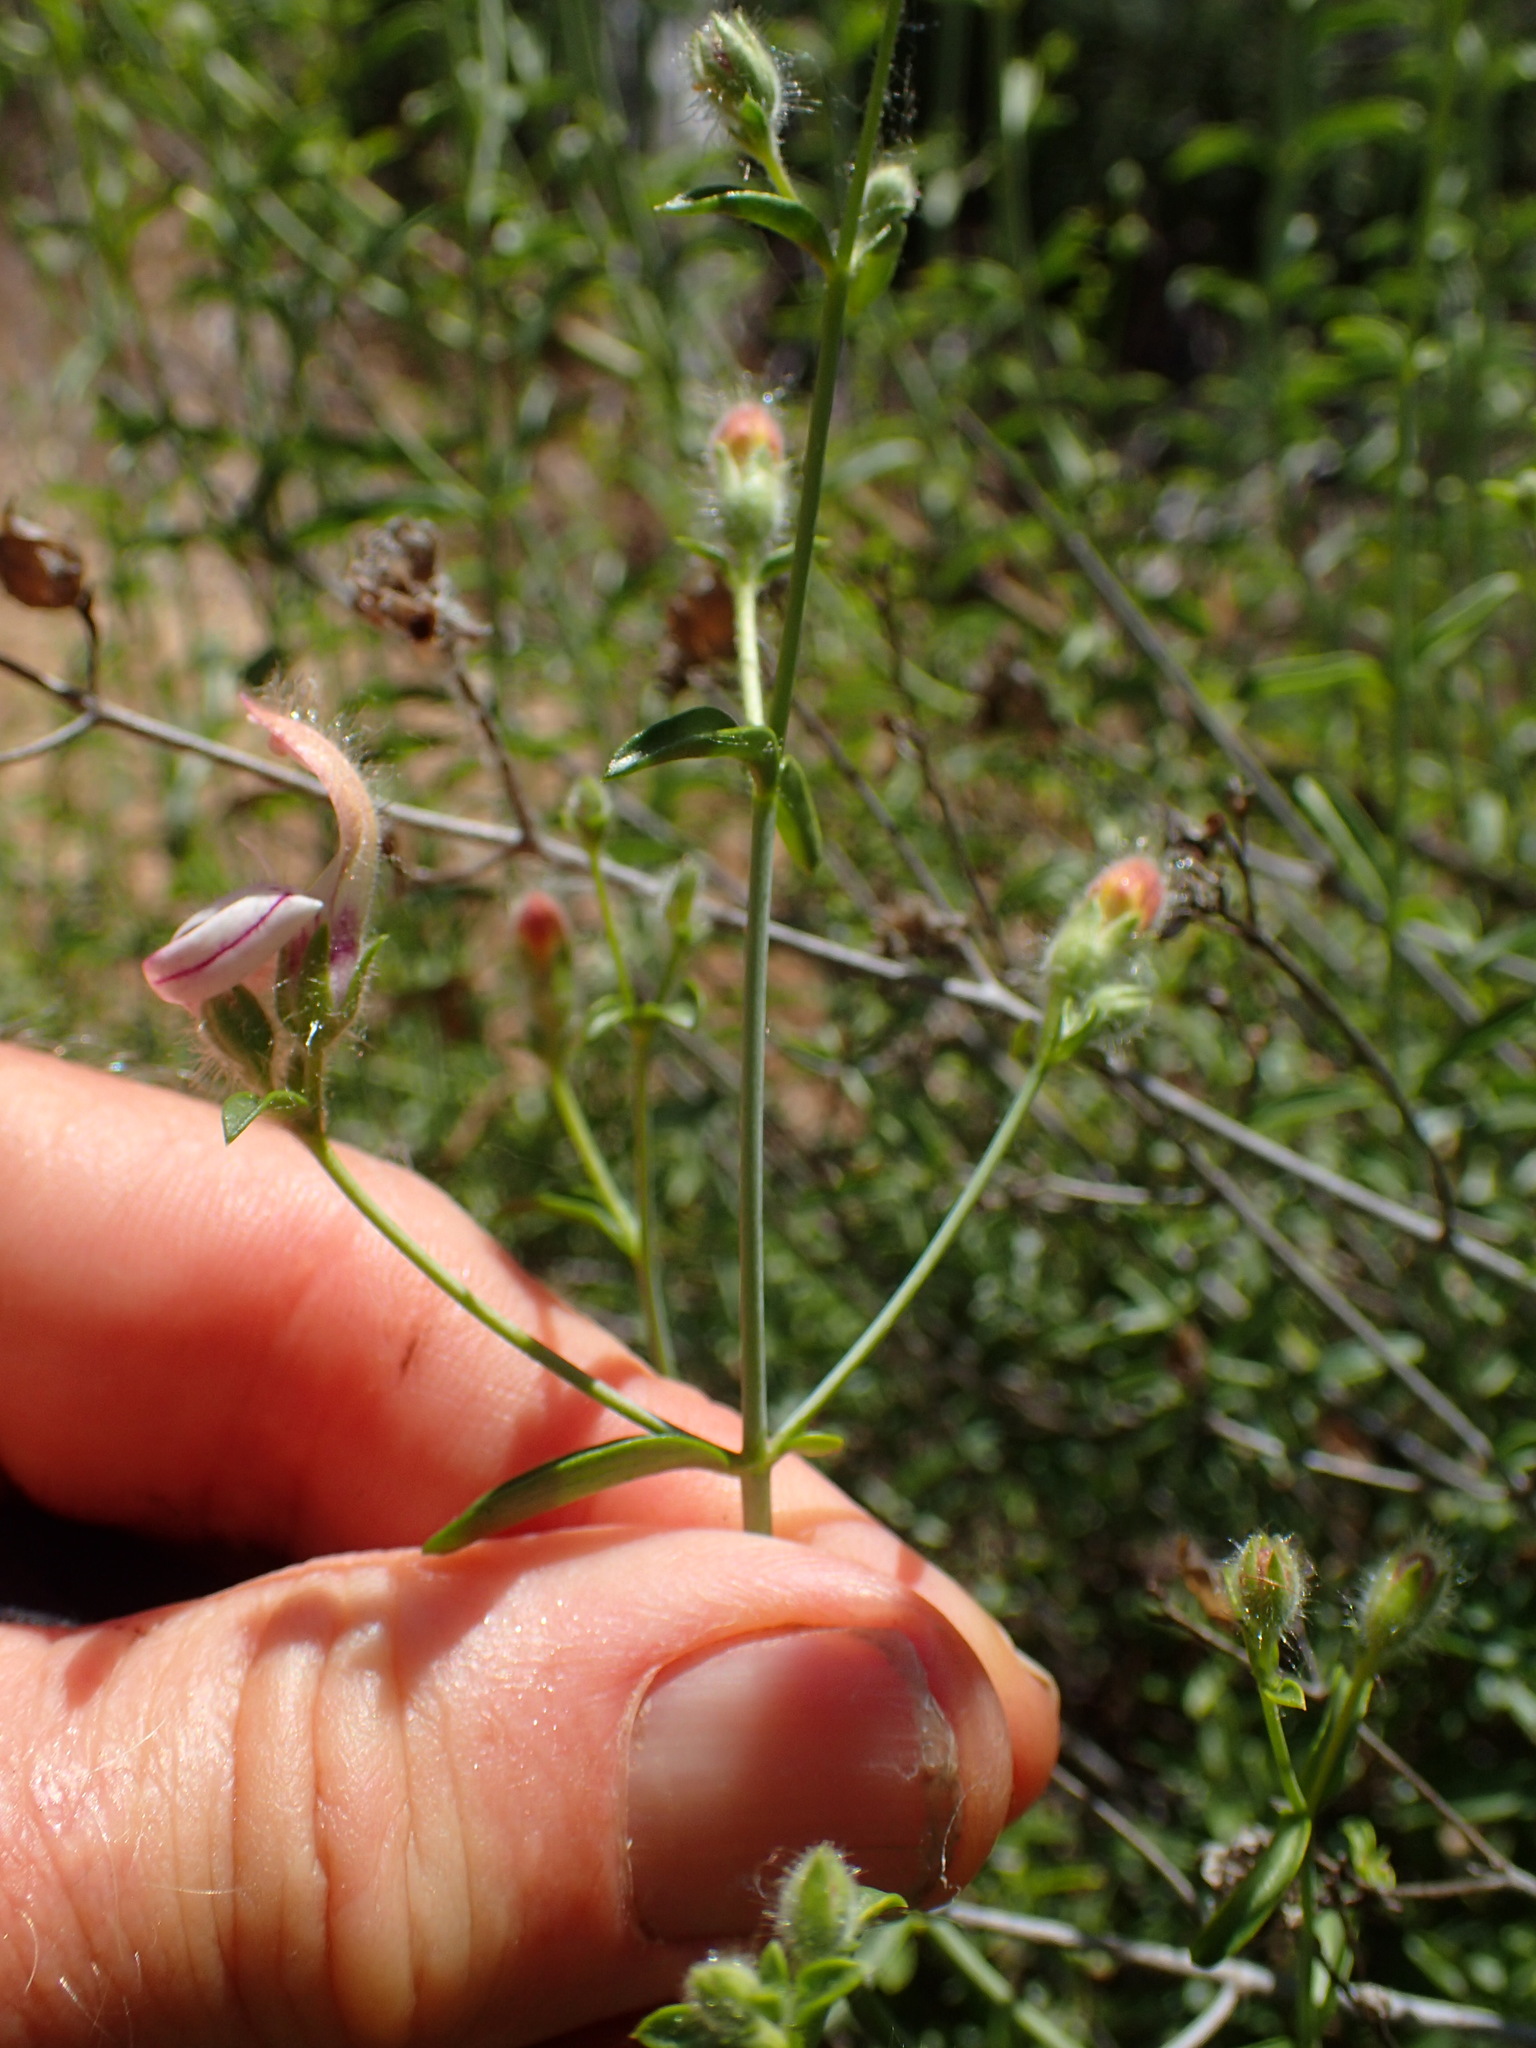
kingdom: Plantae
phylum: Tracheophyta
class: Magnoliopsida
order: Lamiales
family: Plantaginaceae
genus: Keckiella
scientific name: Keckiella breviflora
